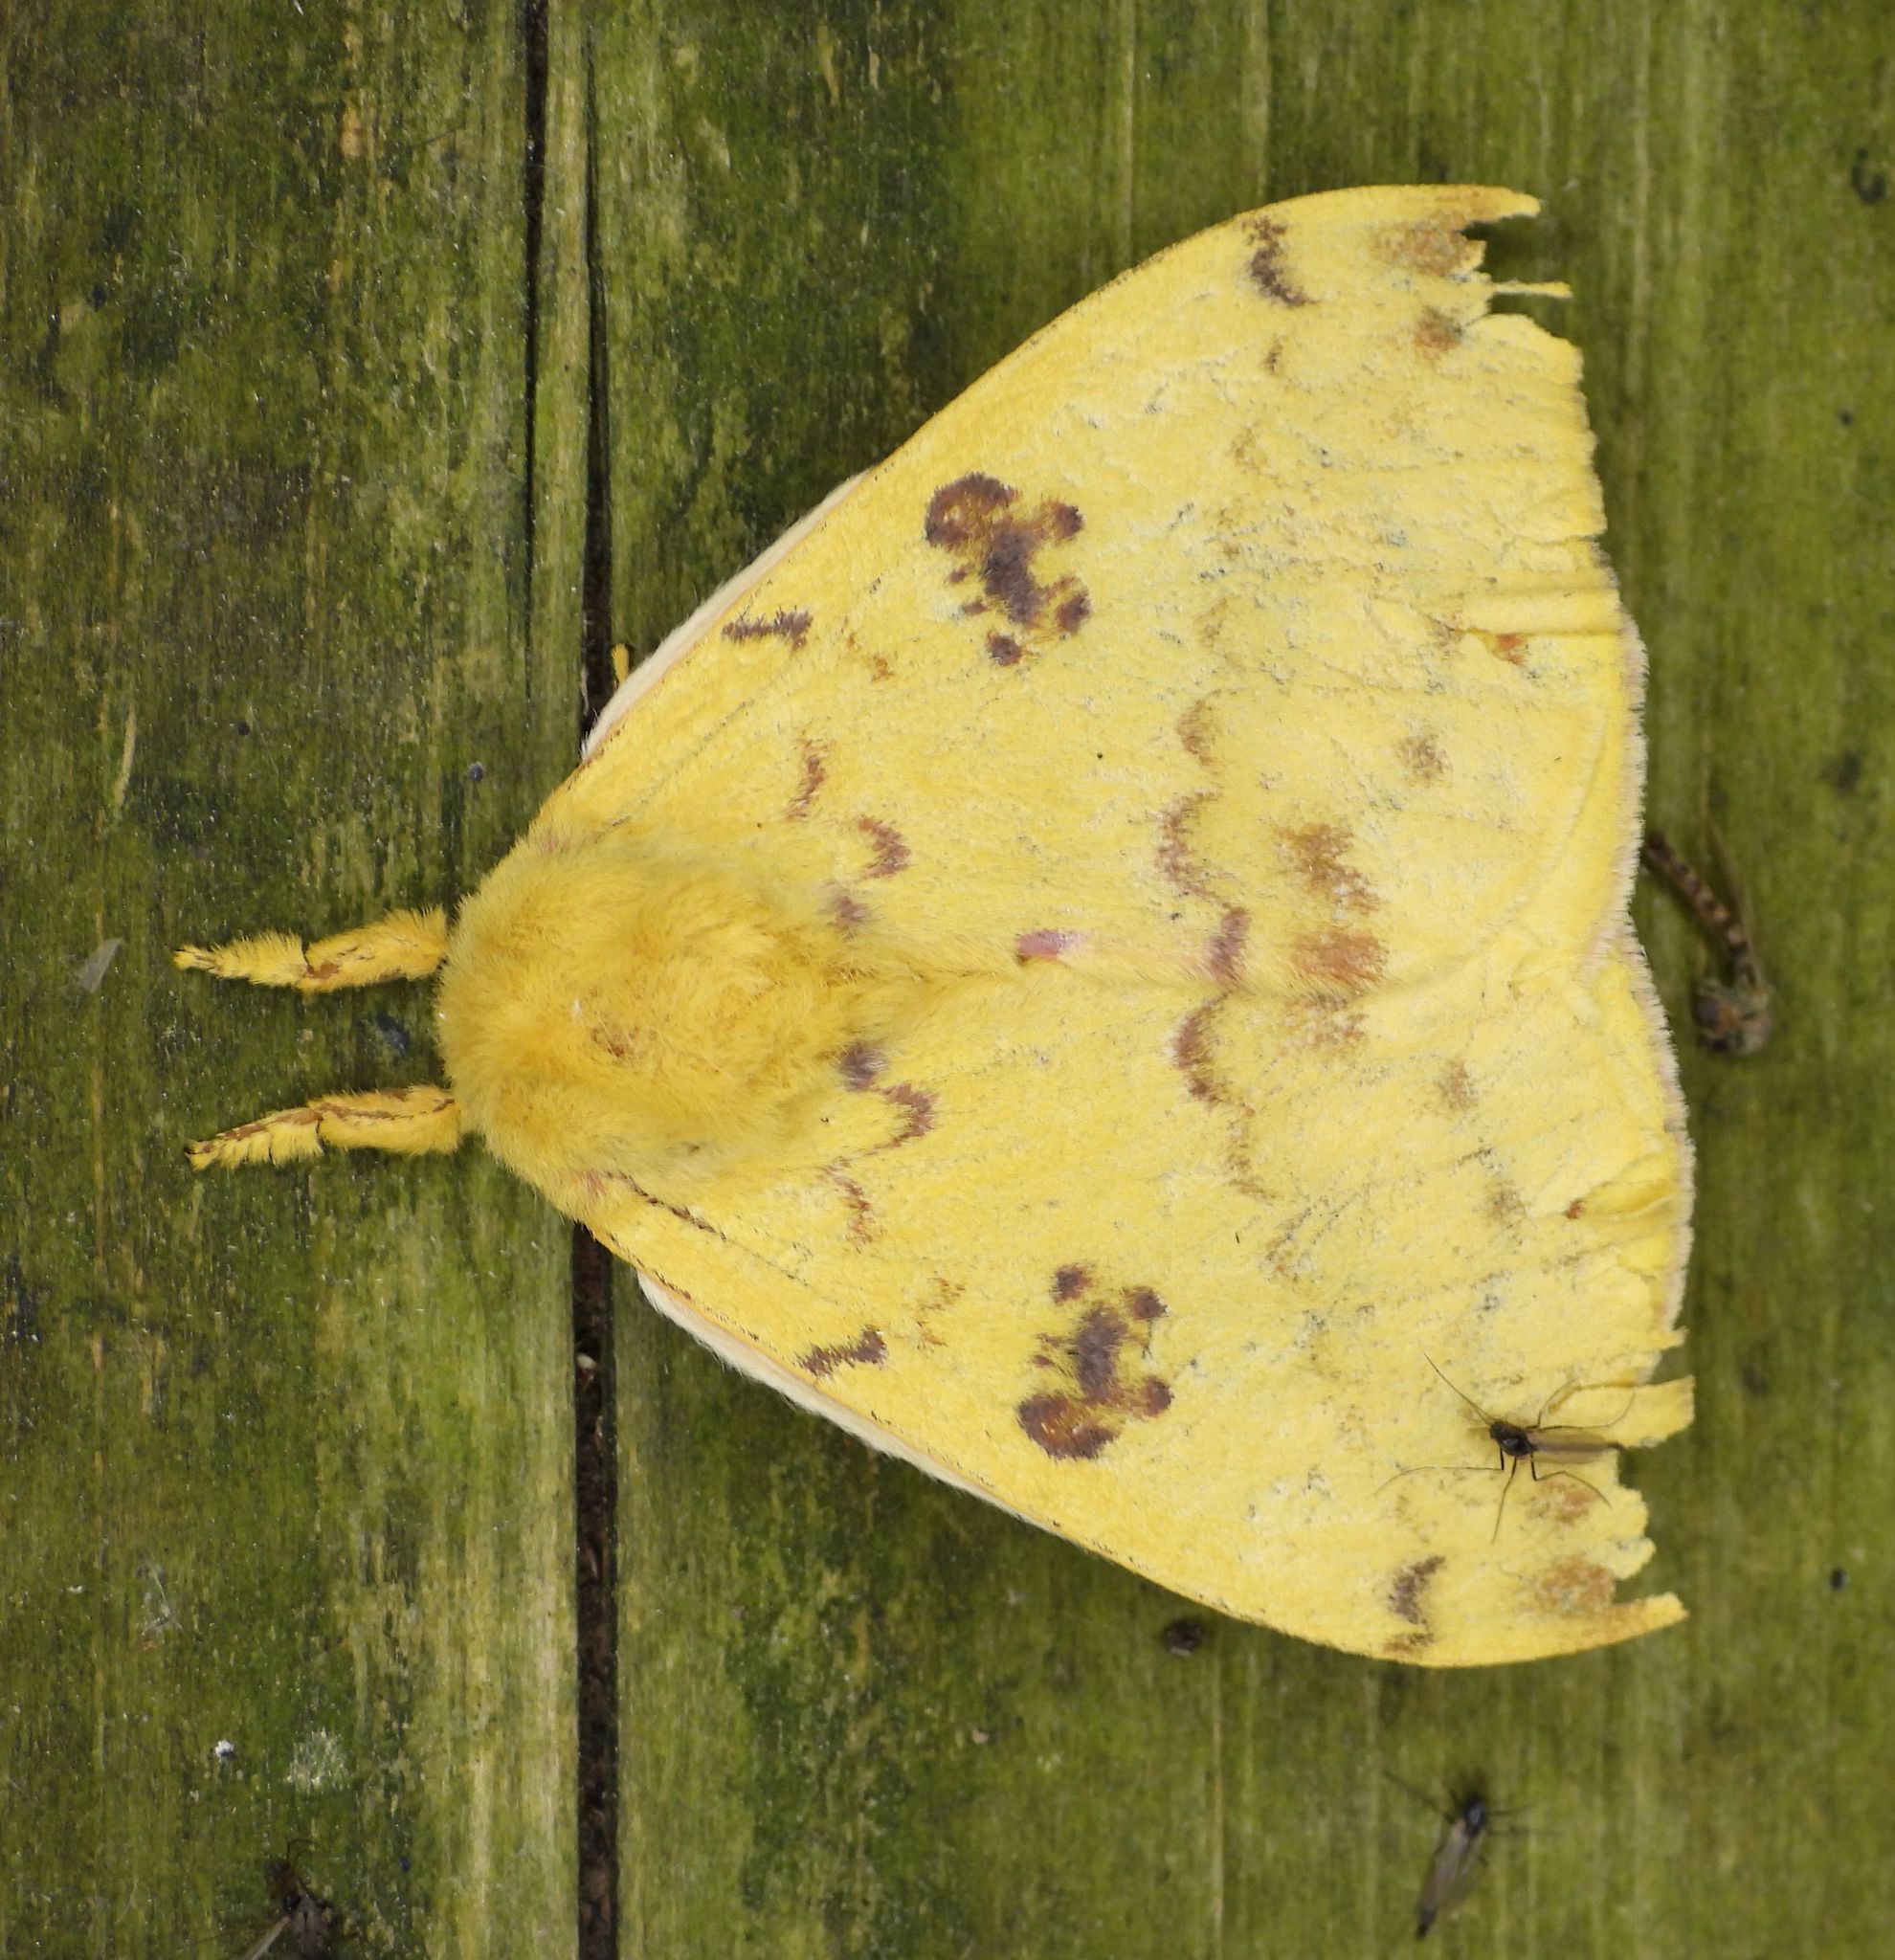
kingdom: Animalia
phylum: Arthropoda
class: Insecta
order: Lepidoptera
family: Saturniidae
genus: Automeris
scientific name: Automeris io
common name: Io moth
